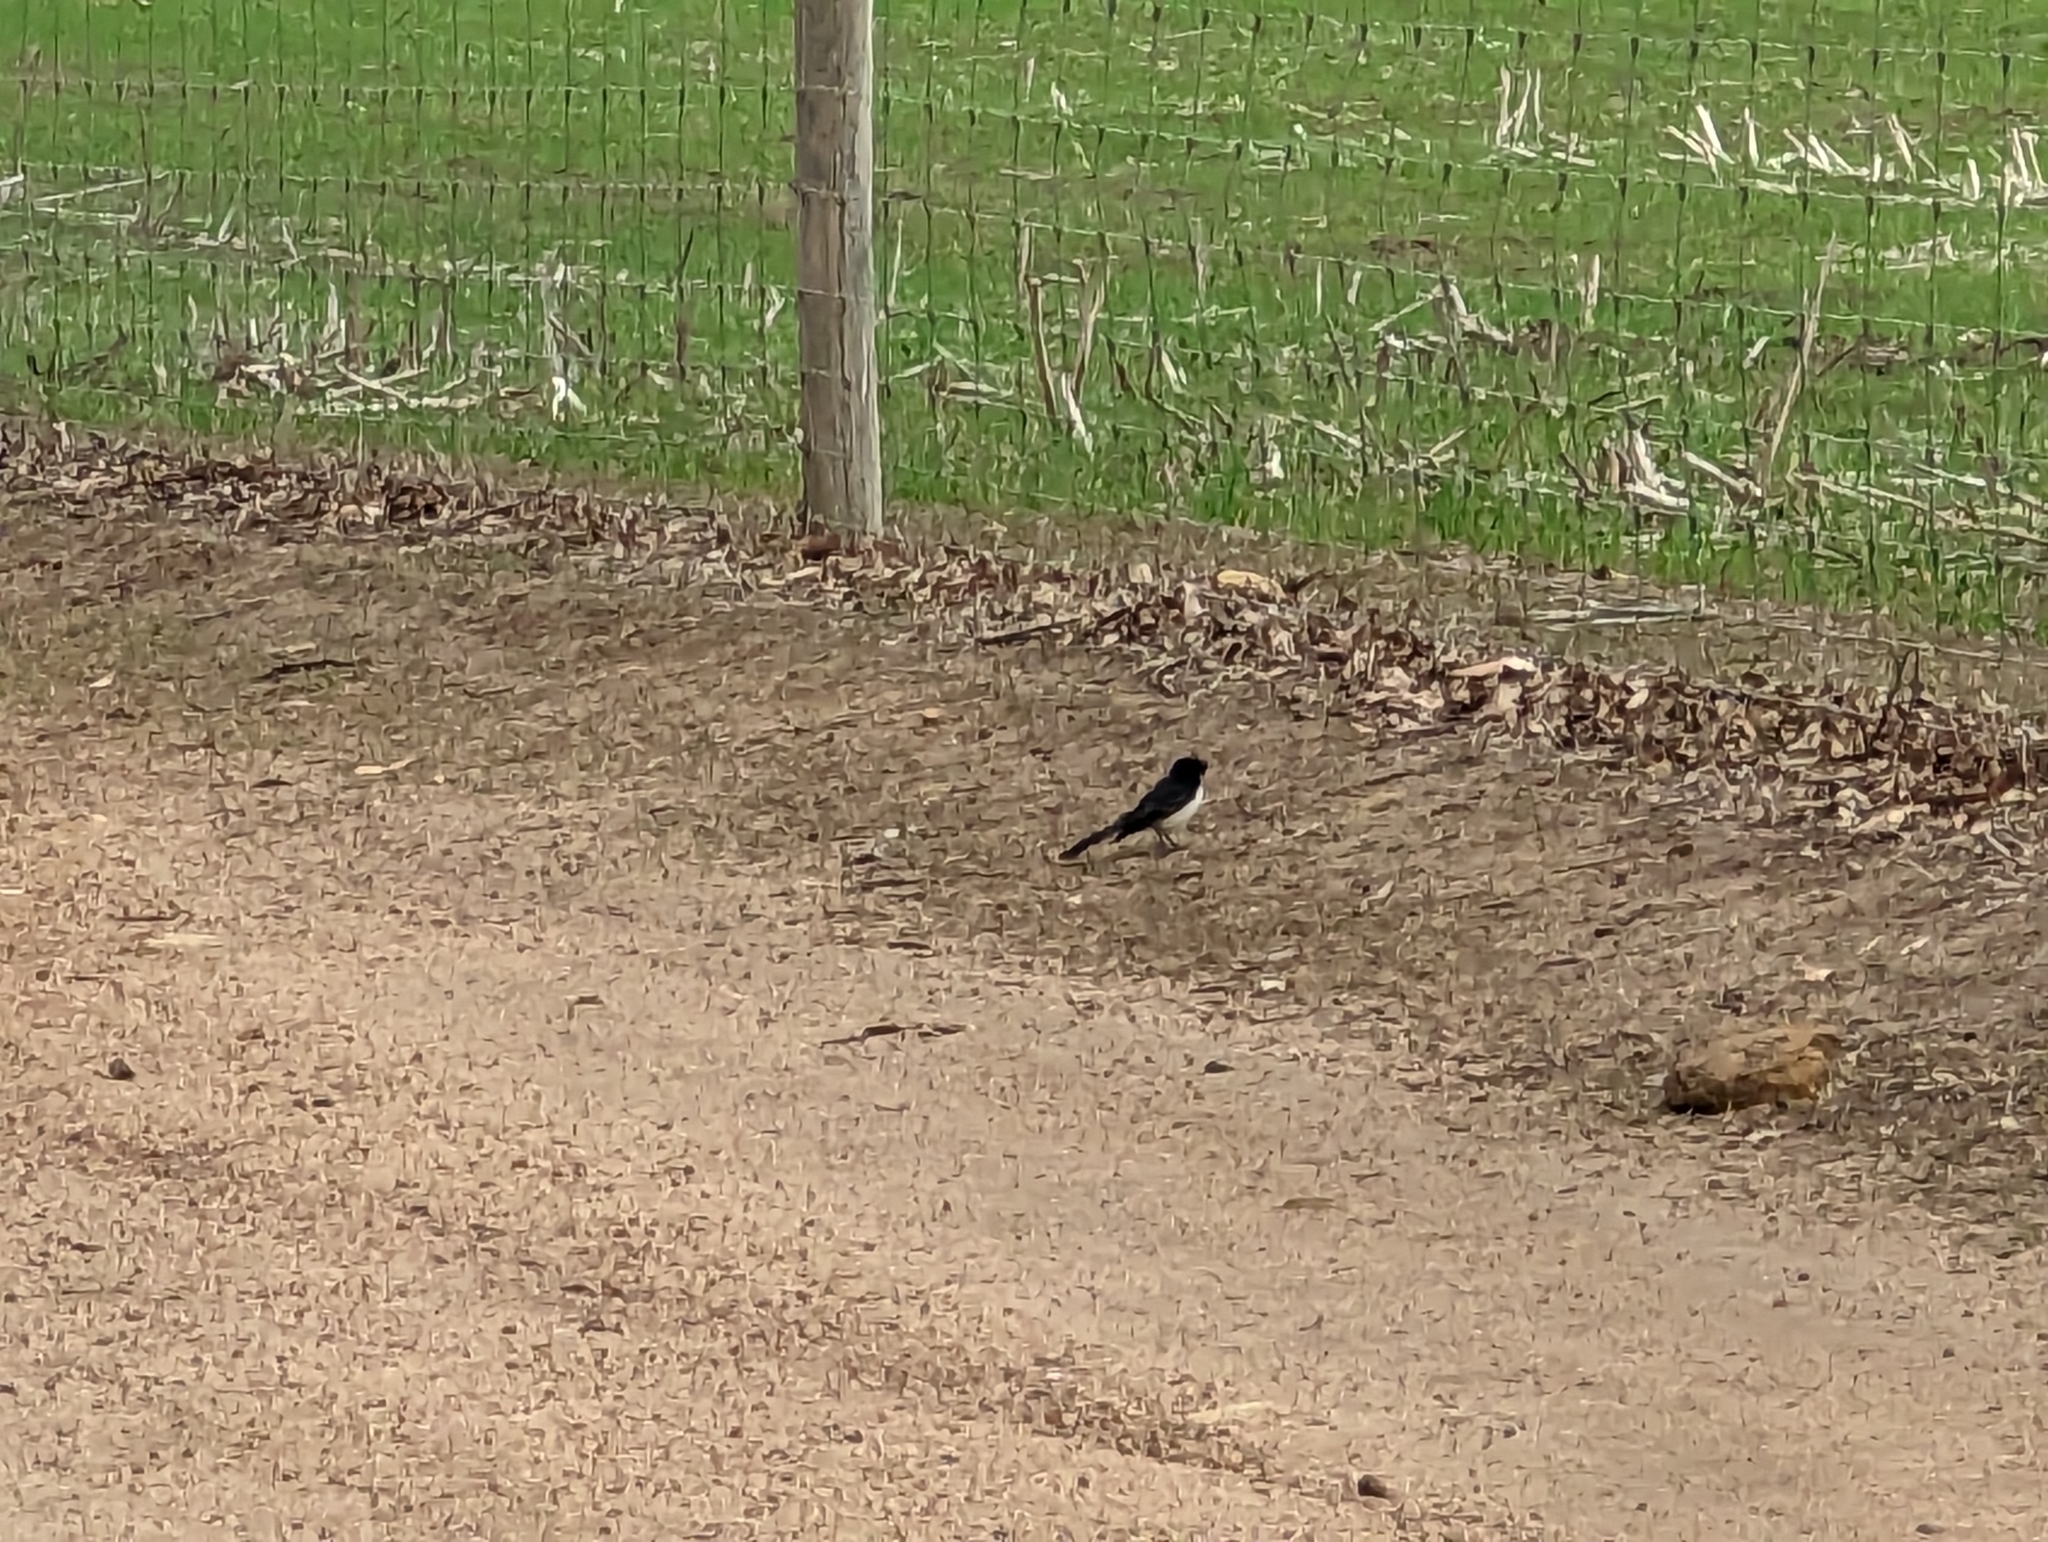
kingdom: Animalia
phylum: Chordata
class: Aves
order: Passeriformes
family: Rhipiduridae
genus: Rhipidura
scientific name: Rhipidura leucophrys
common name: Willie wagtail
